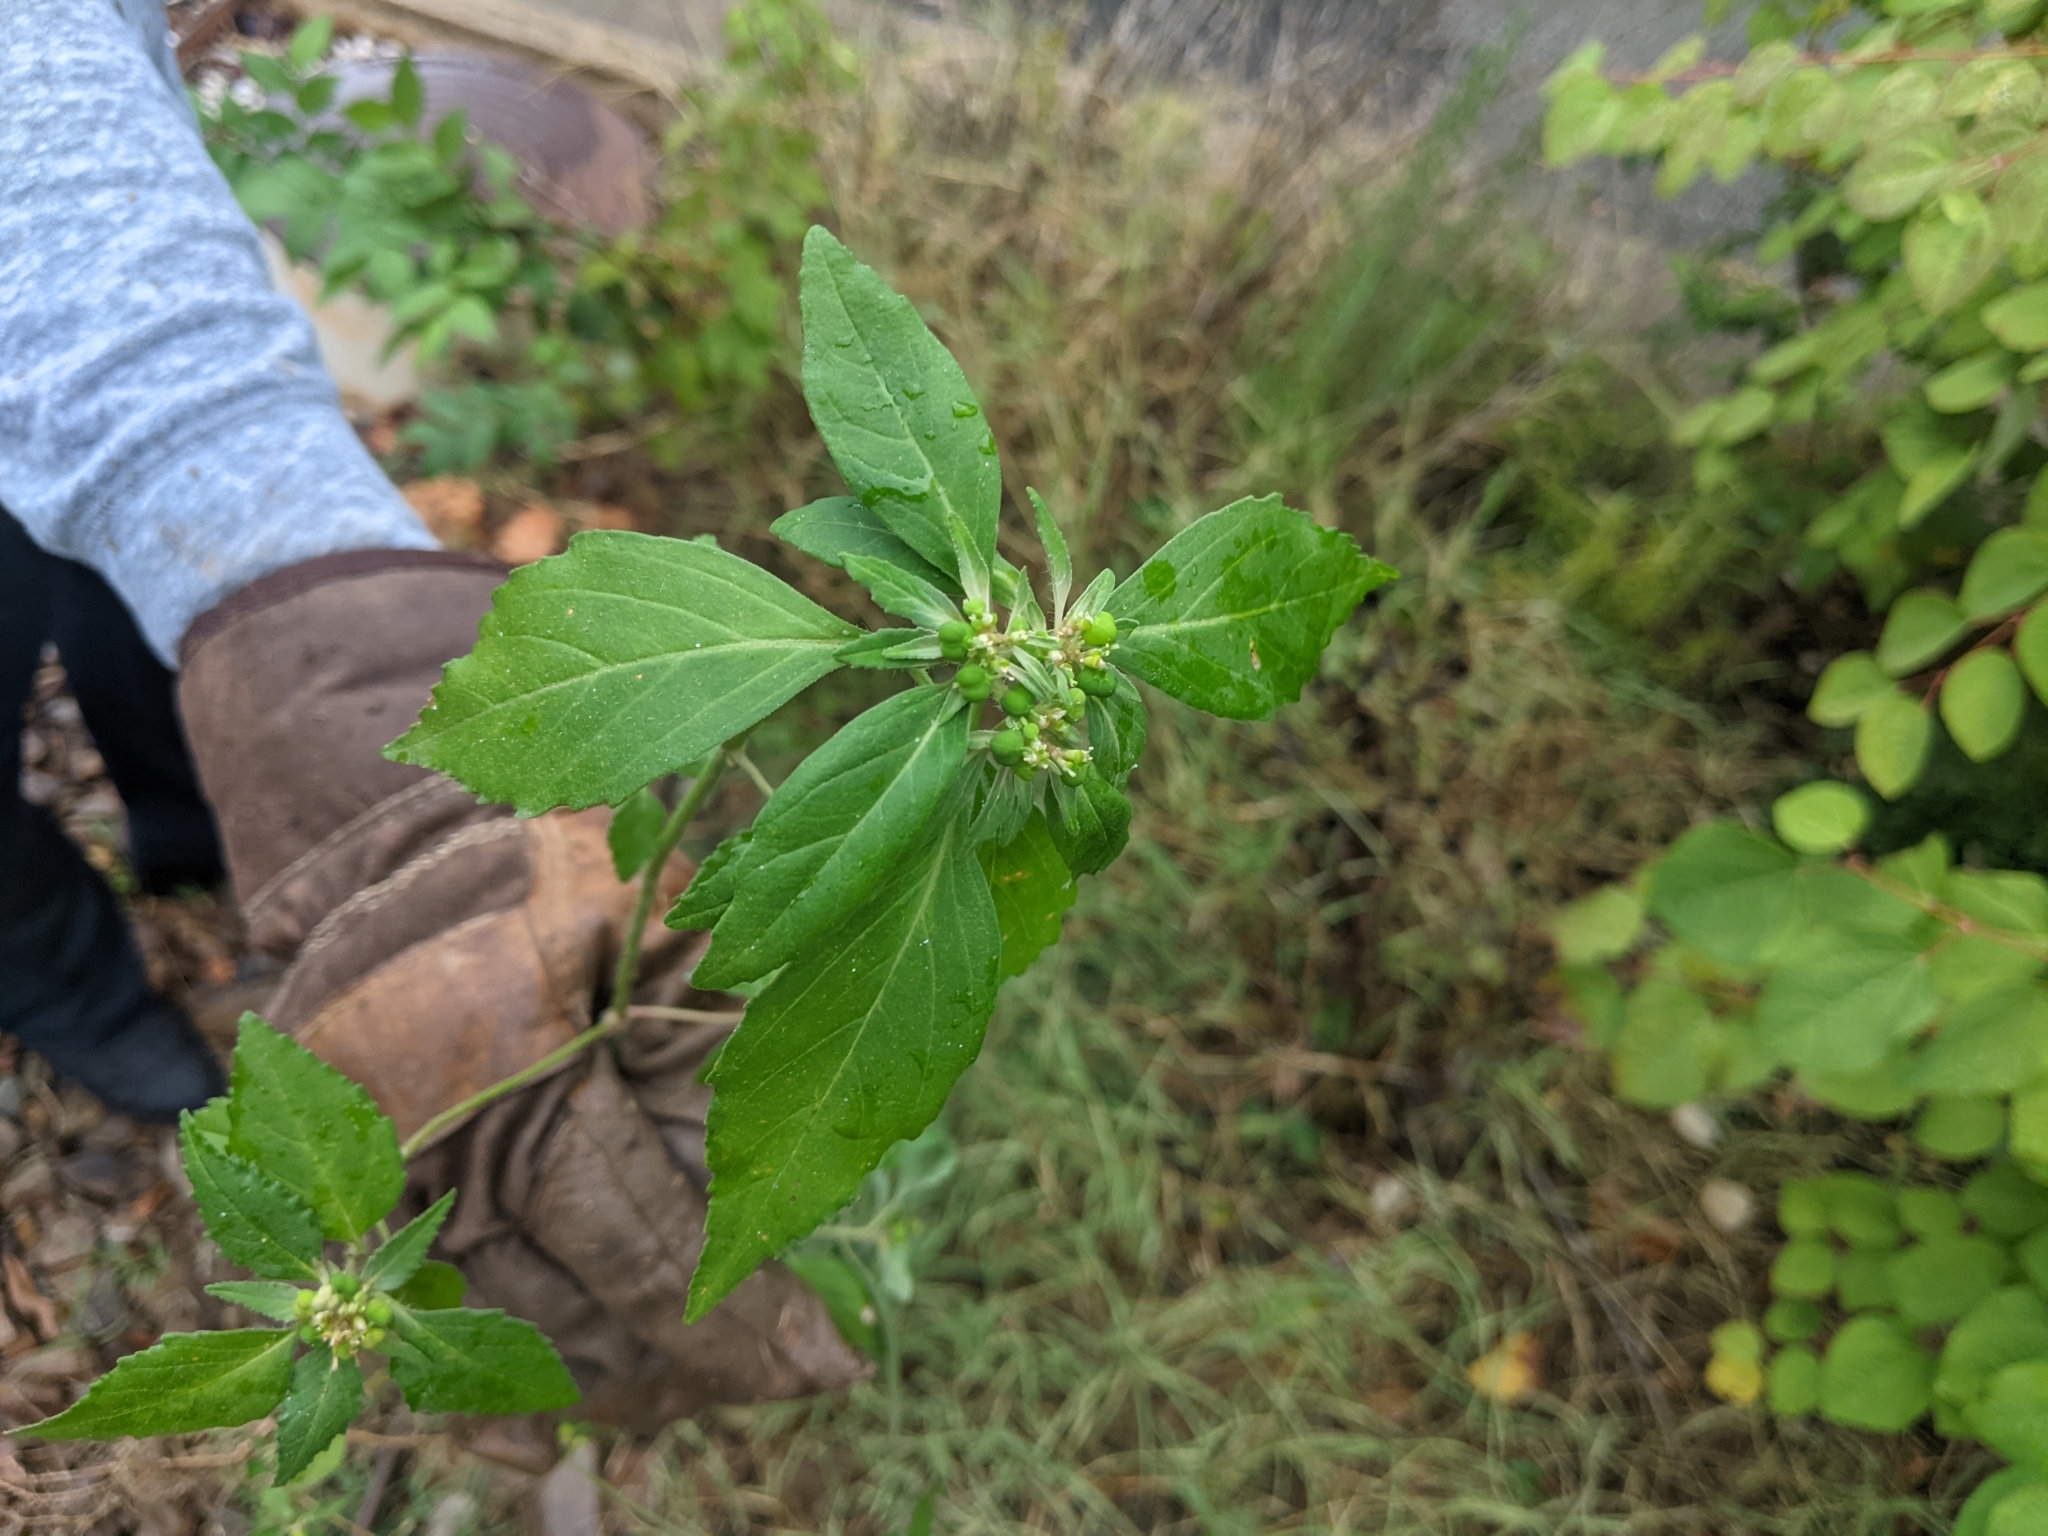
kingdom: Plantae
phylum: Tracheophyta
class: Magnoliopsida
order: Malpighiales
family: Euphorbiaceae
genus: Euphorbia
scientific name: Euphorbia dentata
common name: Dentate spurge
